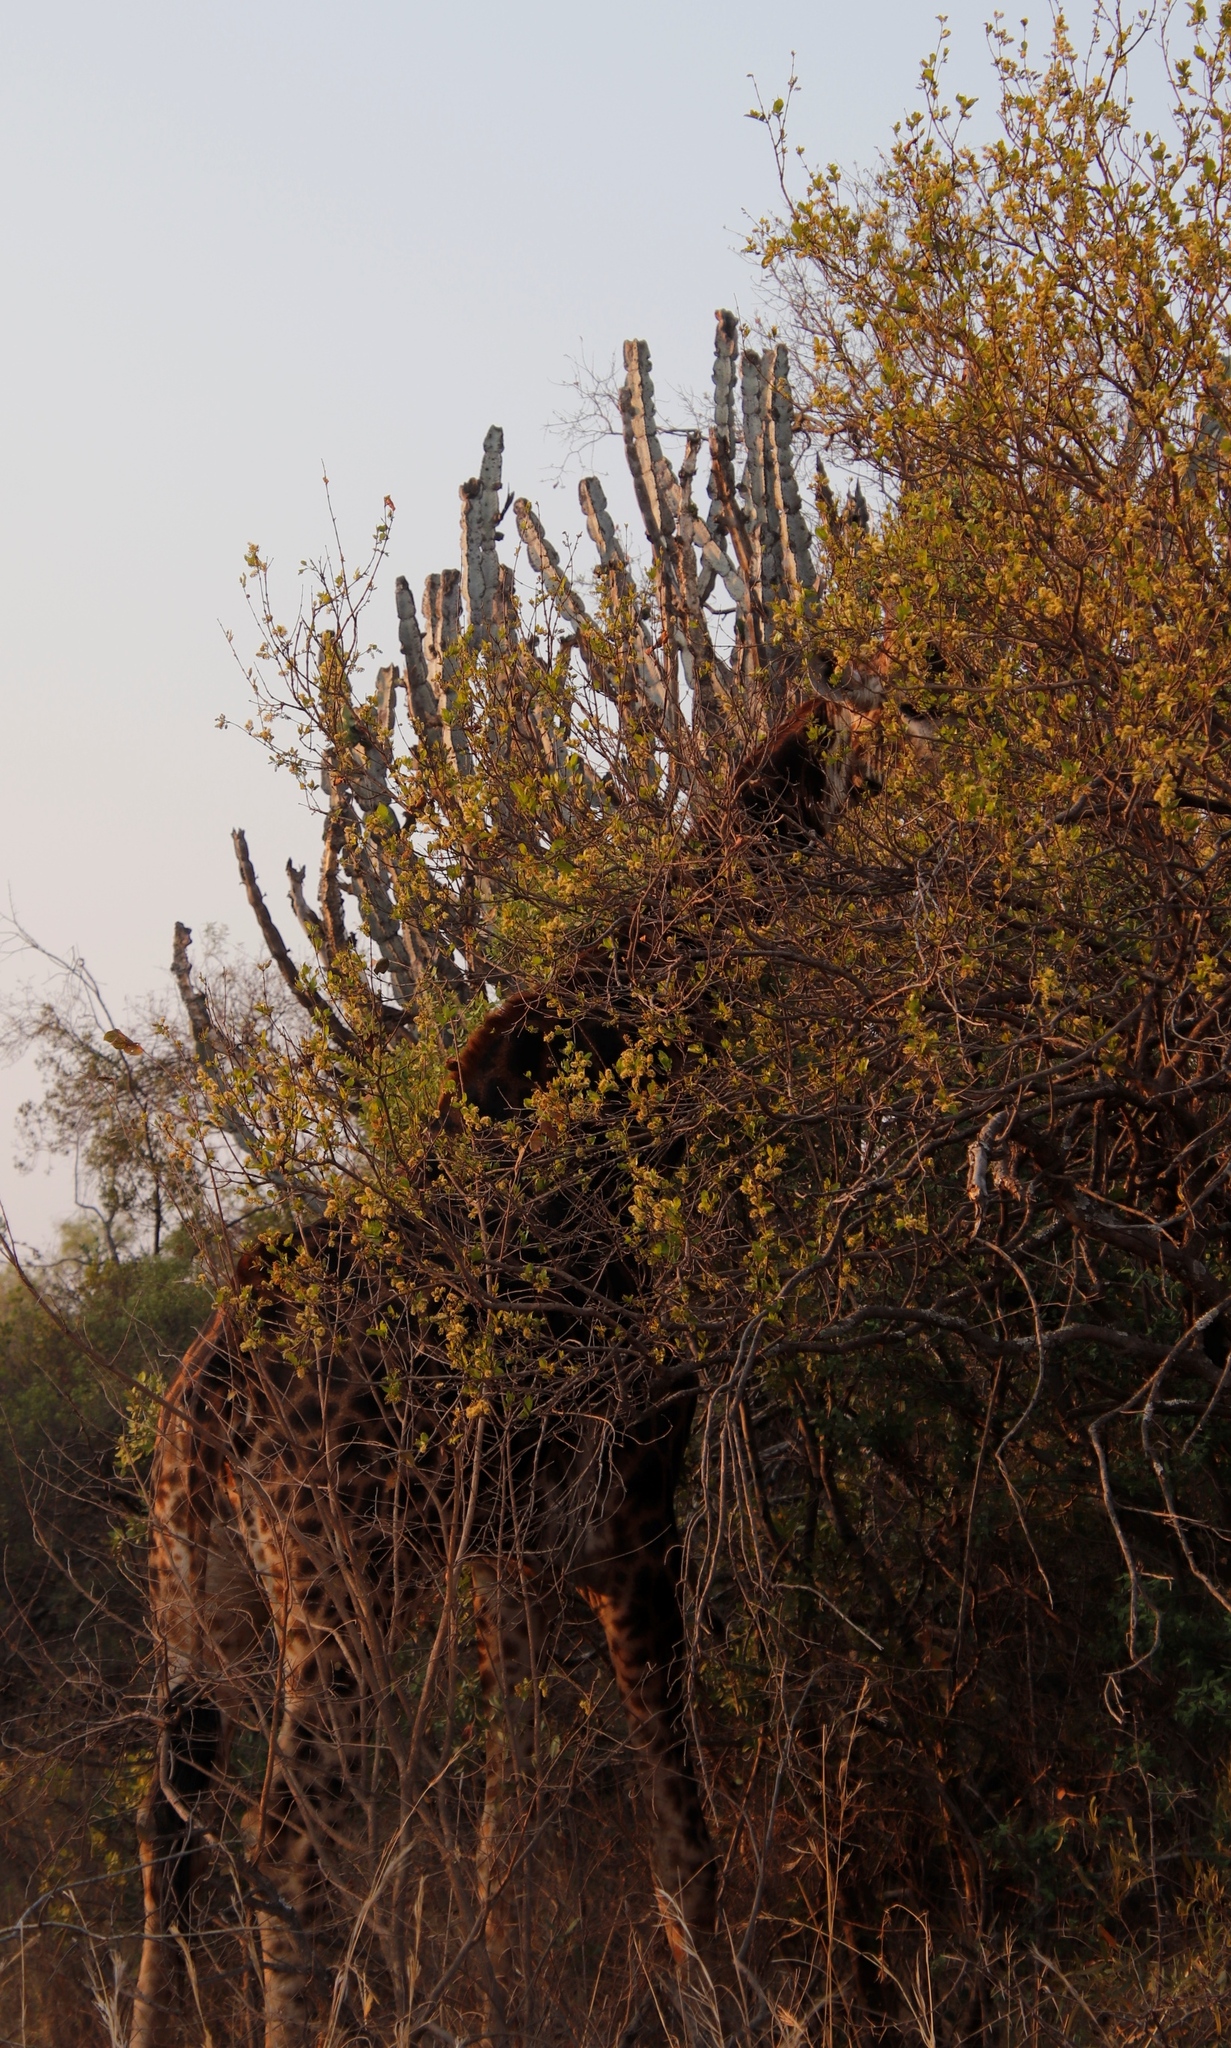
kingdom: Plantae
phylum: Tracheophyta
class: Magnoliopsida
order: Malpighiales
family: Euphorbiaceae
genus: Euphorbia
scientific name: Euphorbia ingens
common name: Cactus spurge
